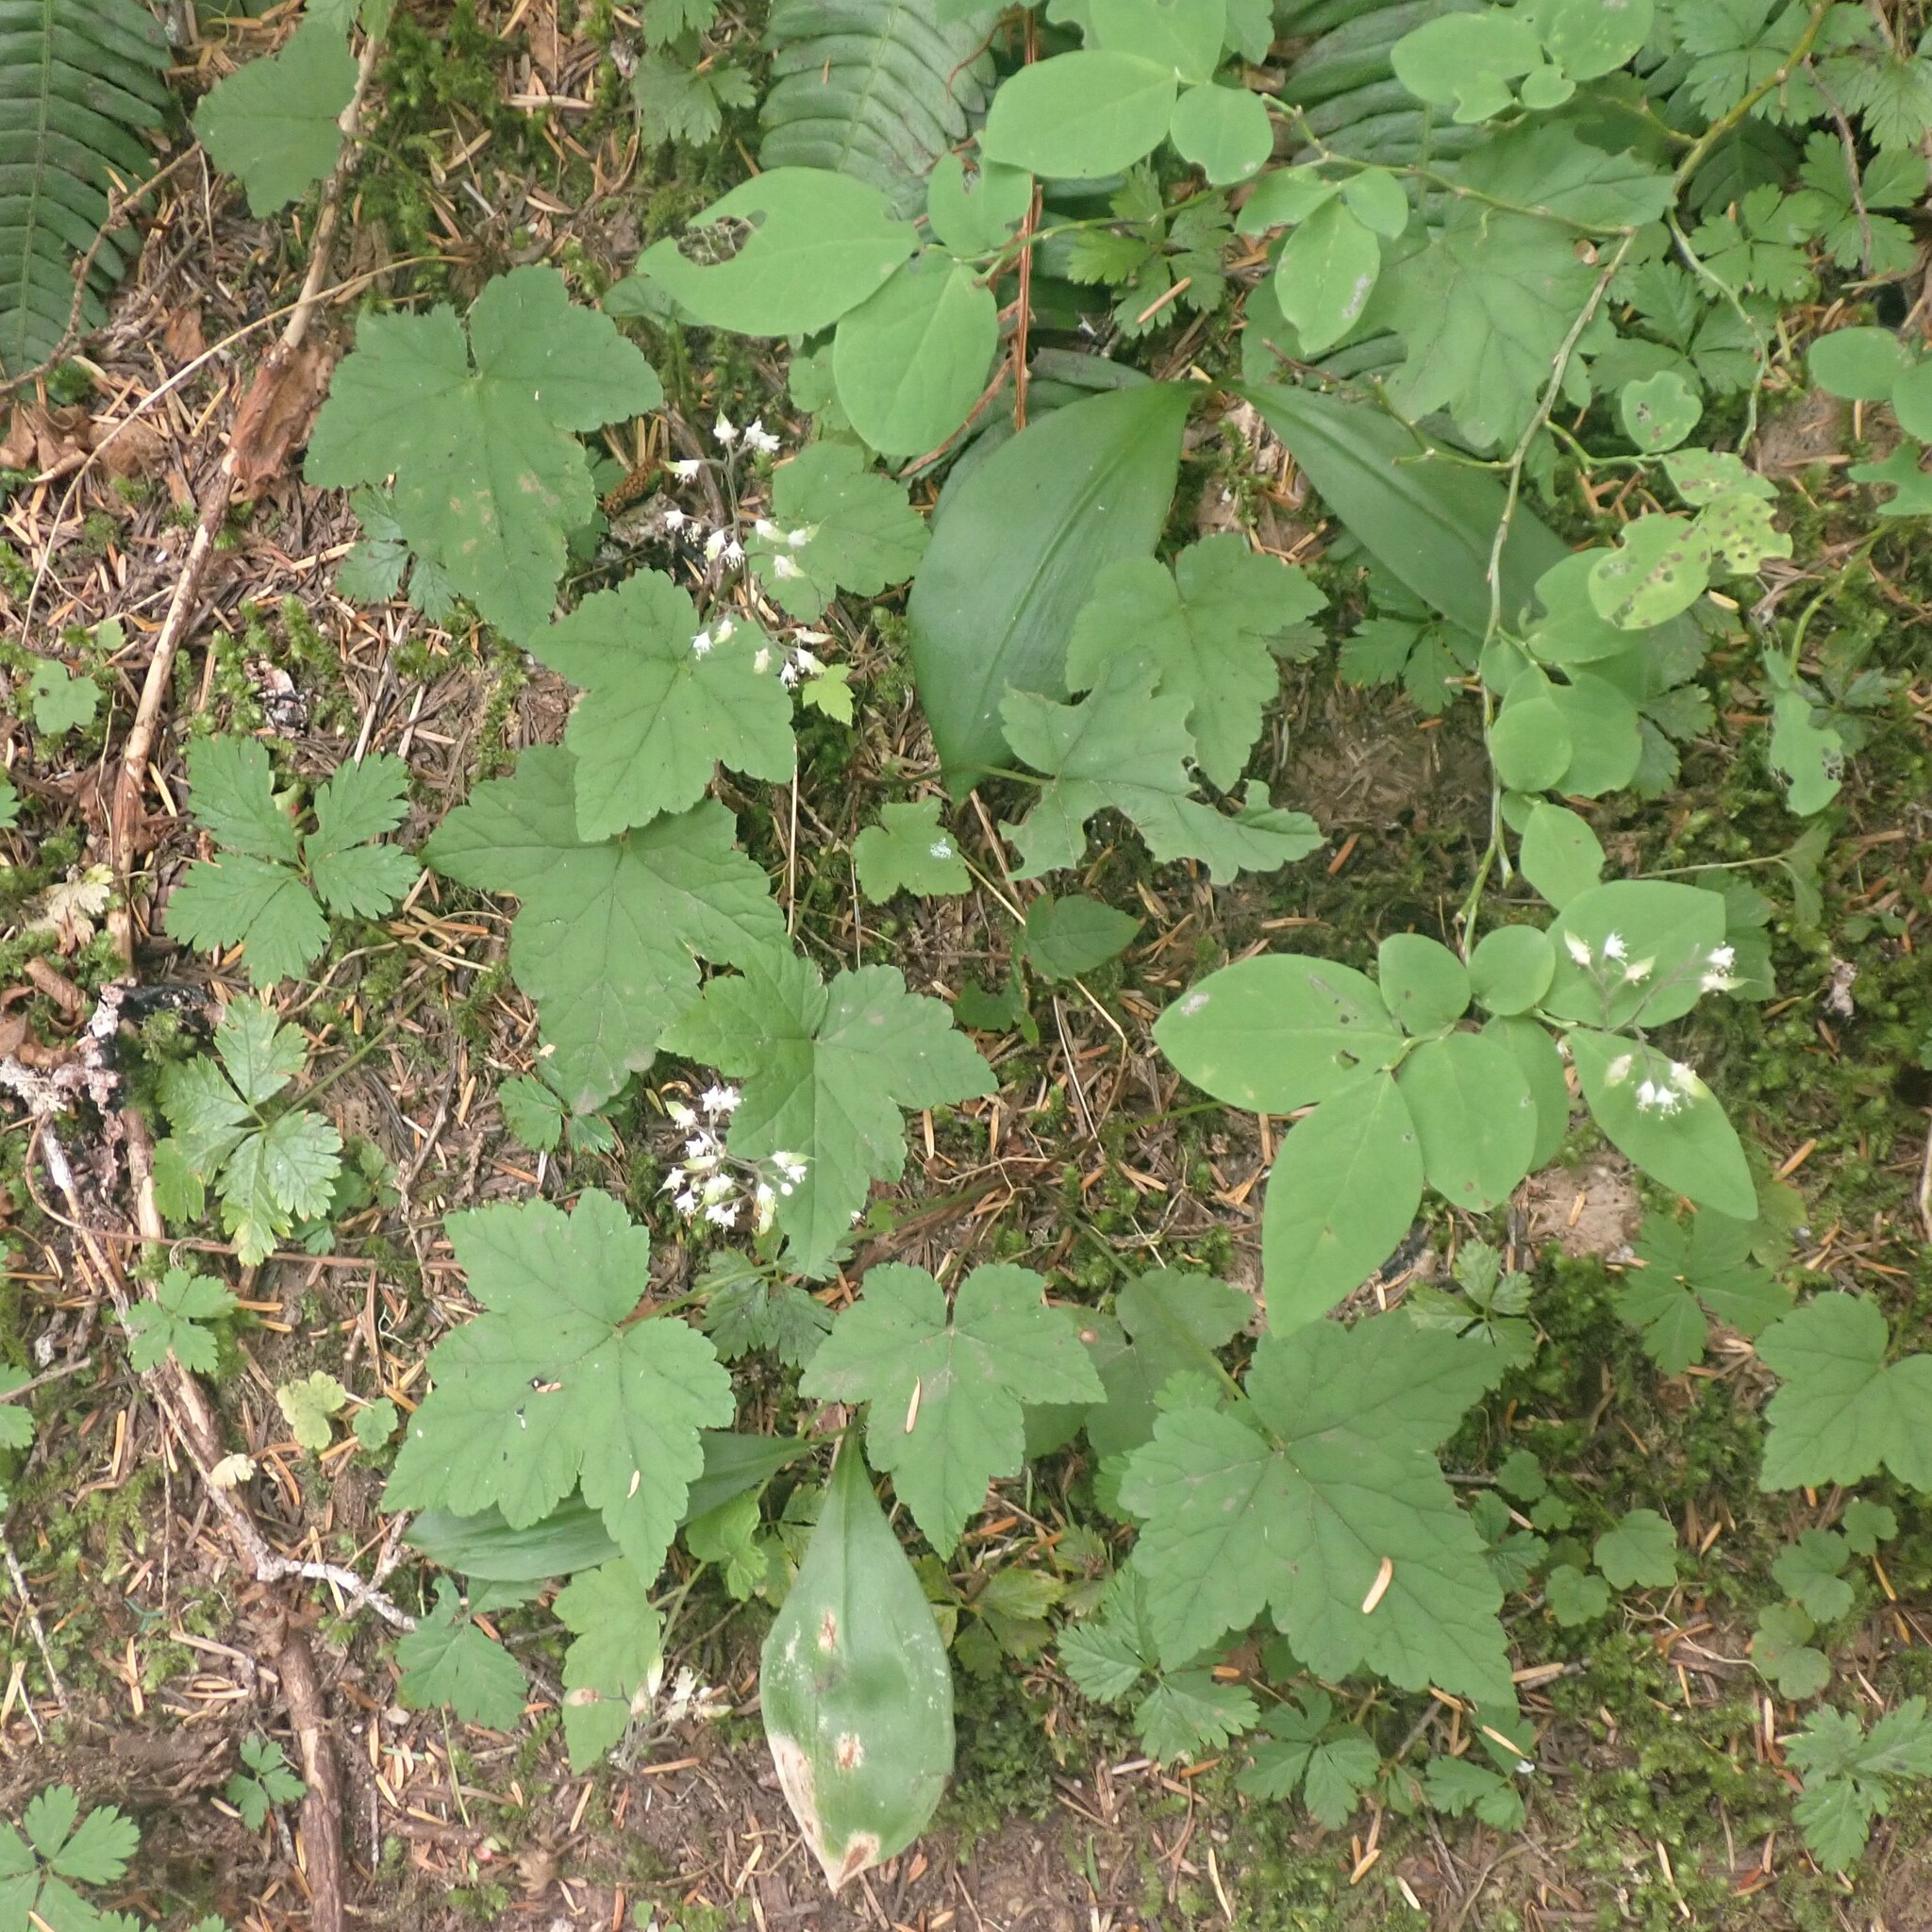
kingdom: Plantae
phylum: Tracheophyta
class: Magnoliopsida
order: Saxifragales
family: Saxifragaceae
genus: Tiarella
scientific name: Tiarella trifoliata
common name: Sugar-scoop
